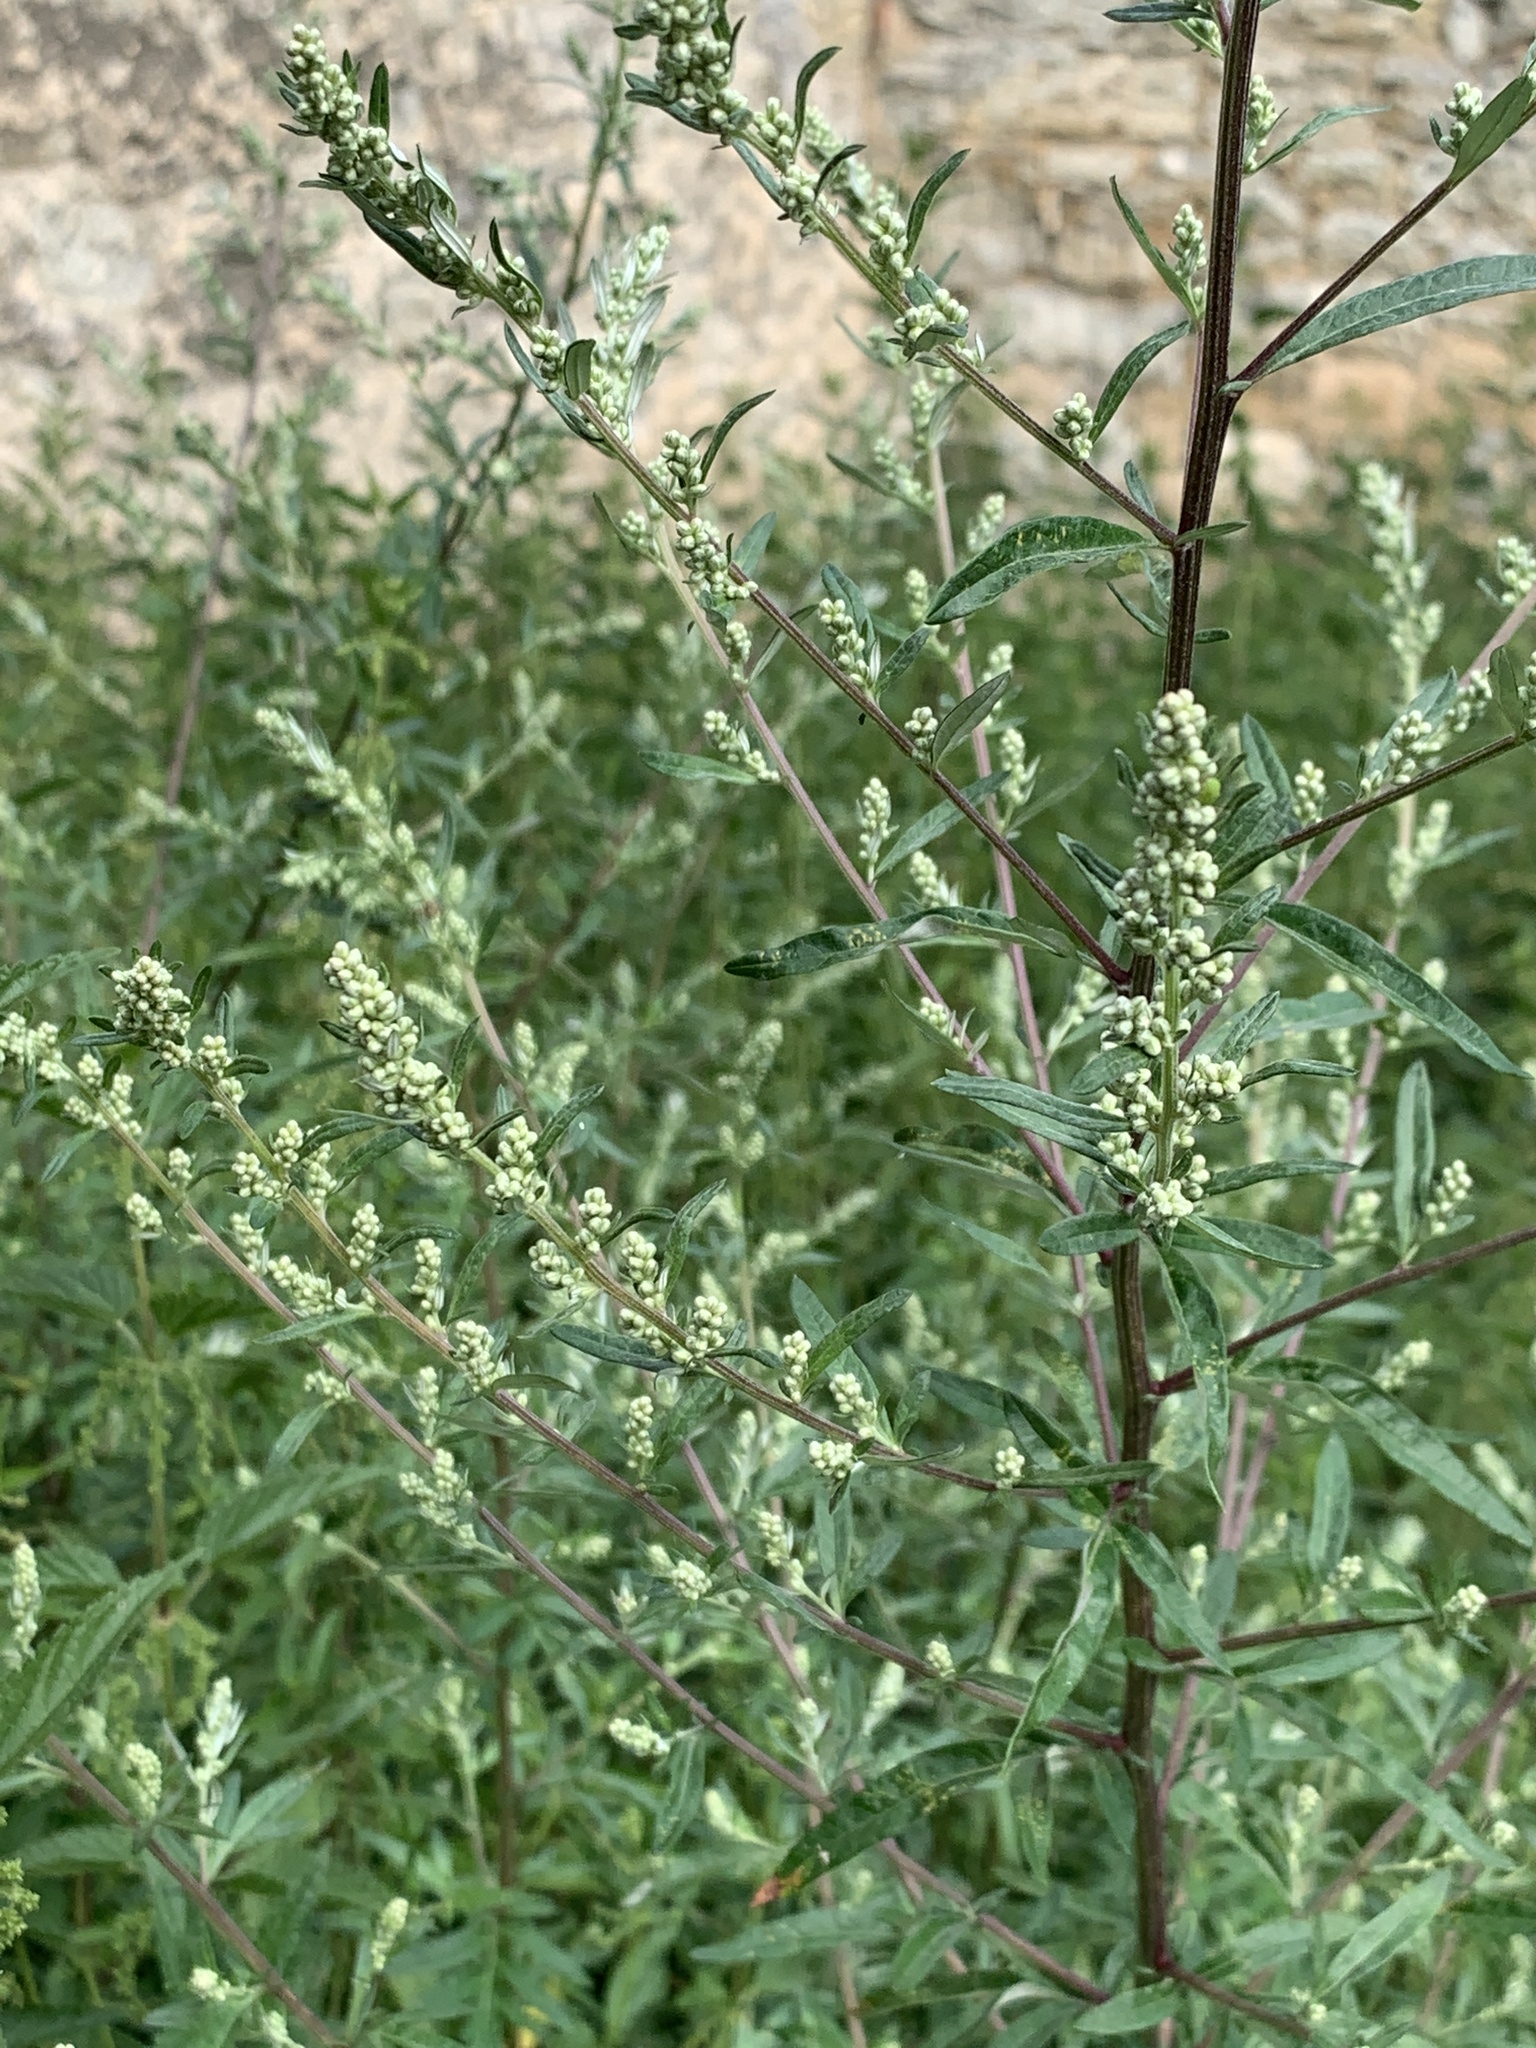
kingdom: Plantae
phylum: Tracheophyta
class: Magnoliopsida
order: Asterales
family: Asteraceae
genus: Artemisia
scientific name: Artemisia vulgaris
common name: Mugwort
